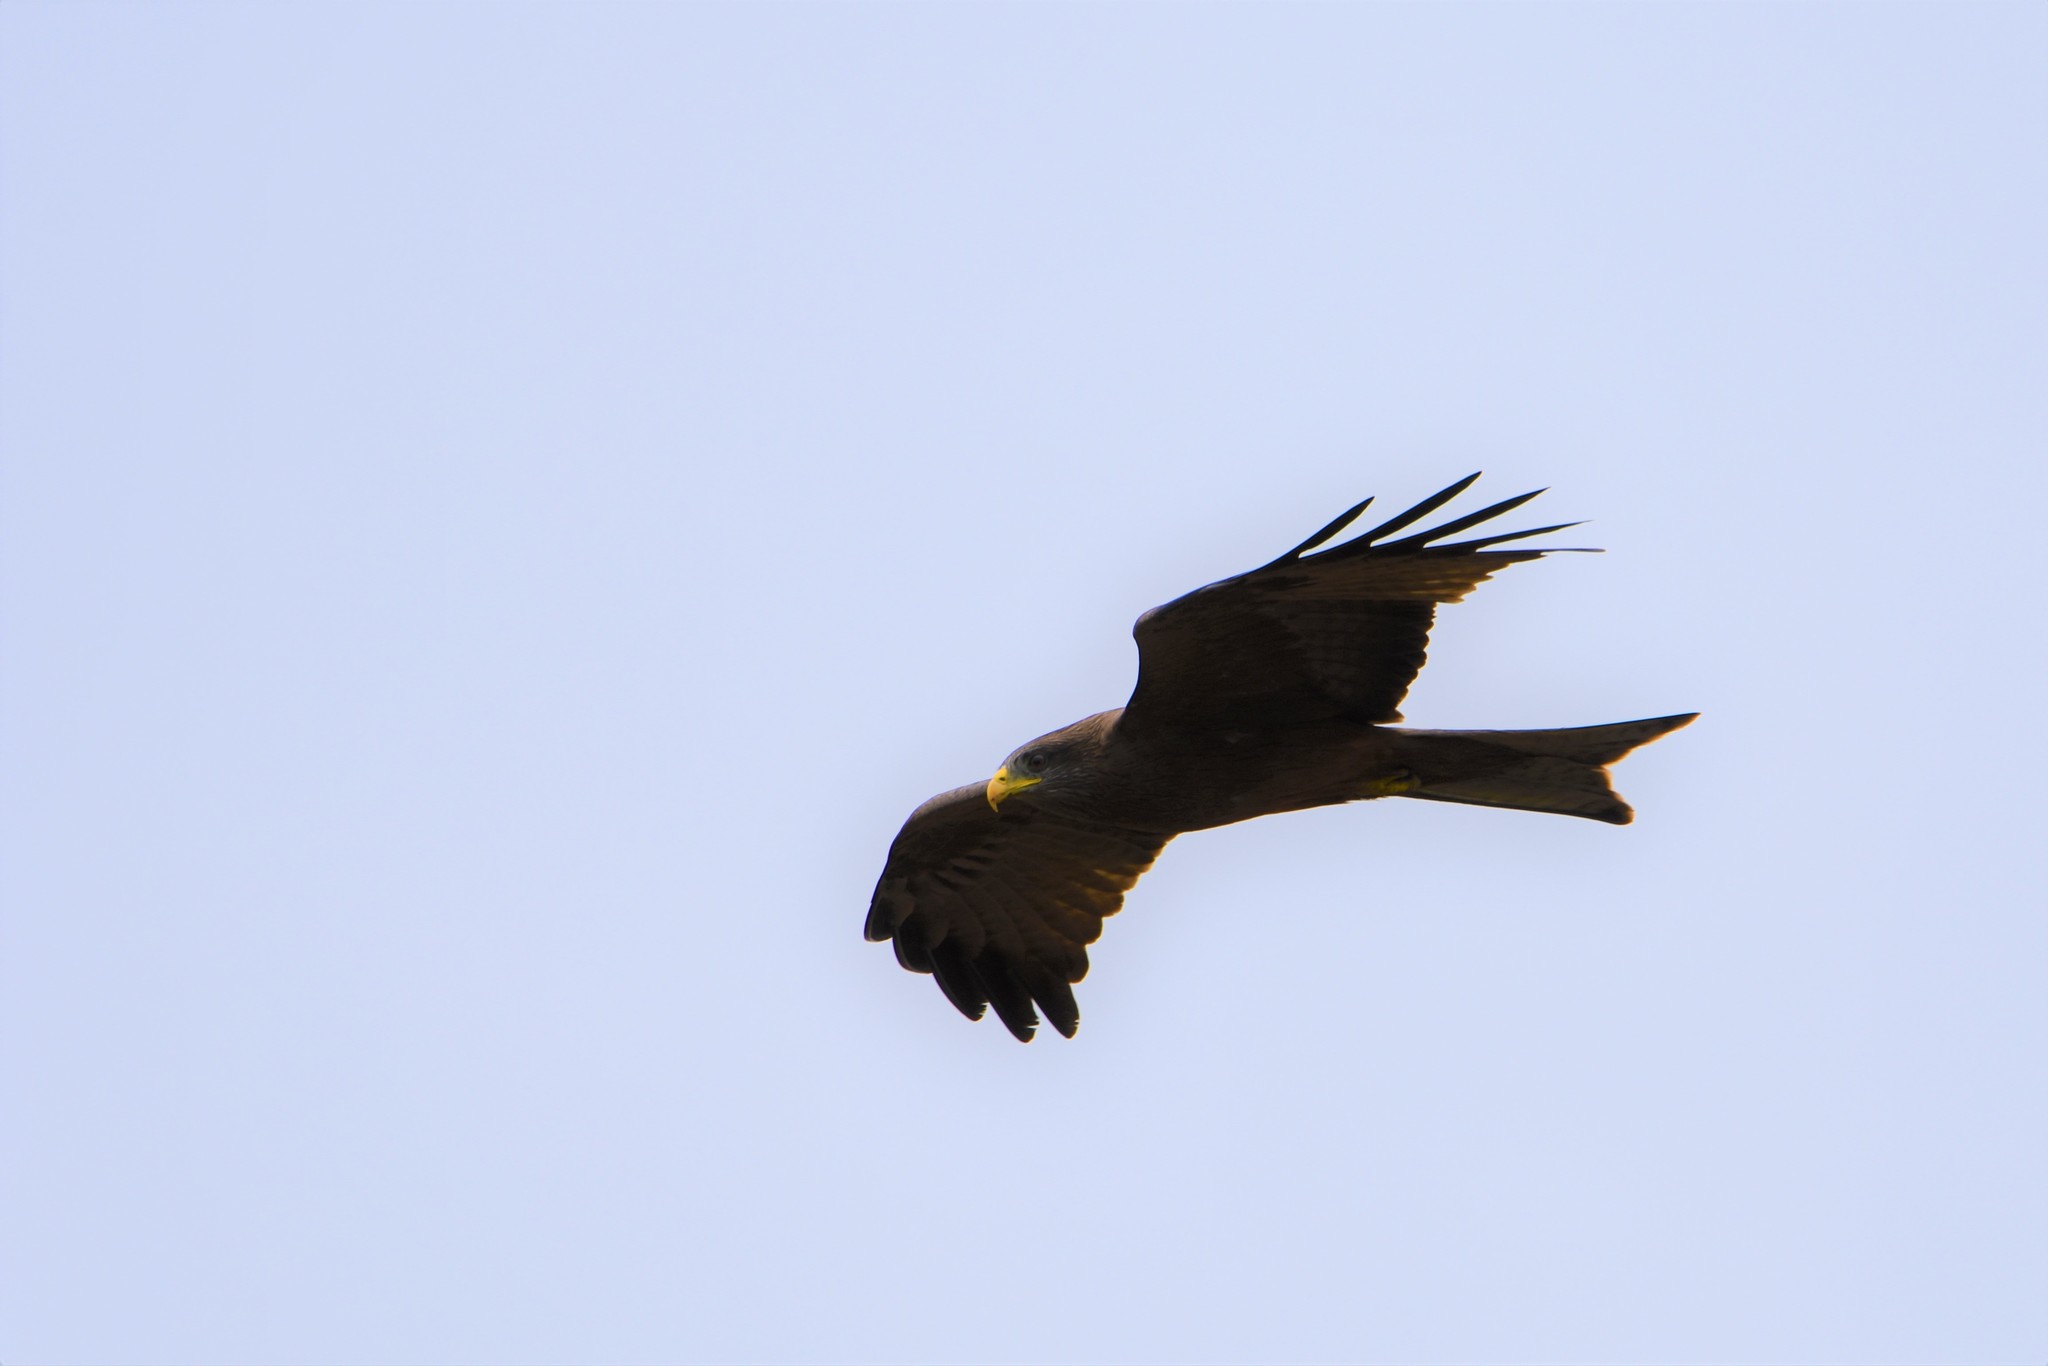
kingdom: Animalia
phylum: Chordata
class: Aves
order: Accipitriformes
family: Accipitridae
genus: Milvus
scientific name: Milvus migrans
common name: Black kite
